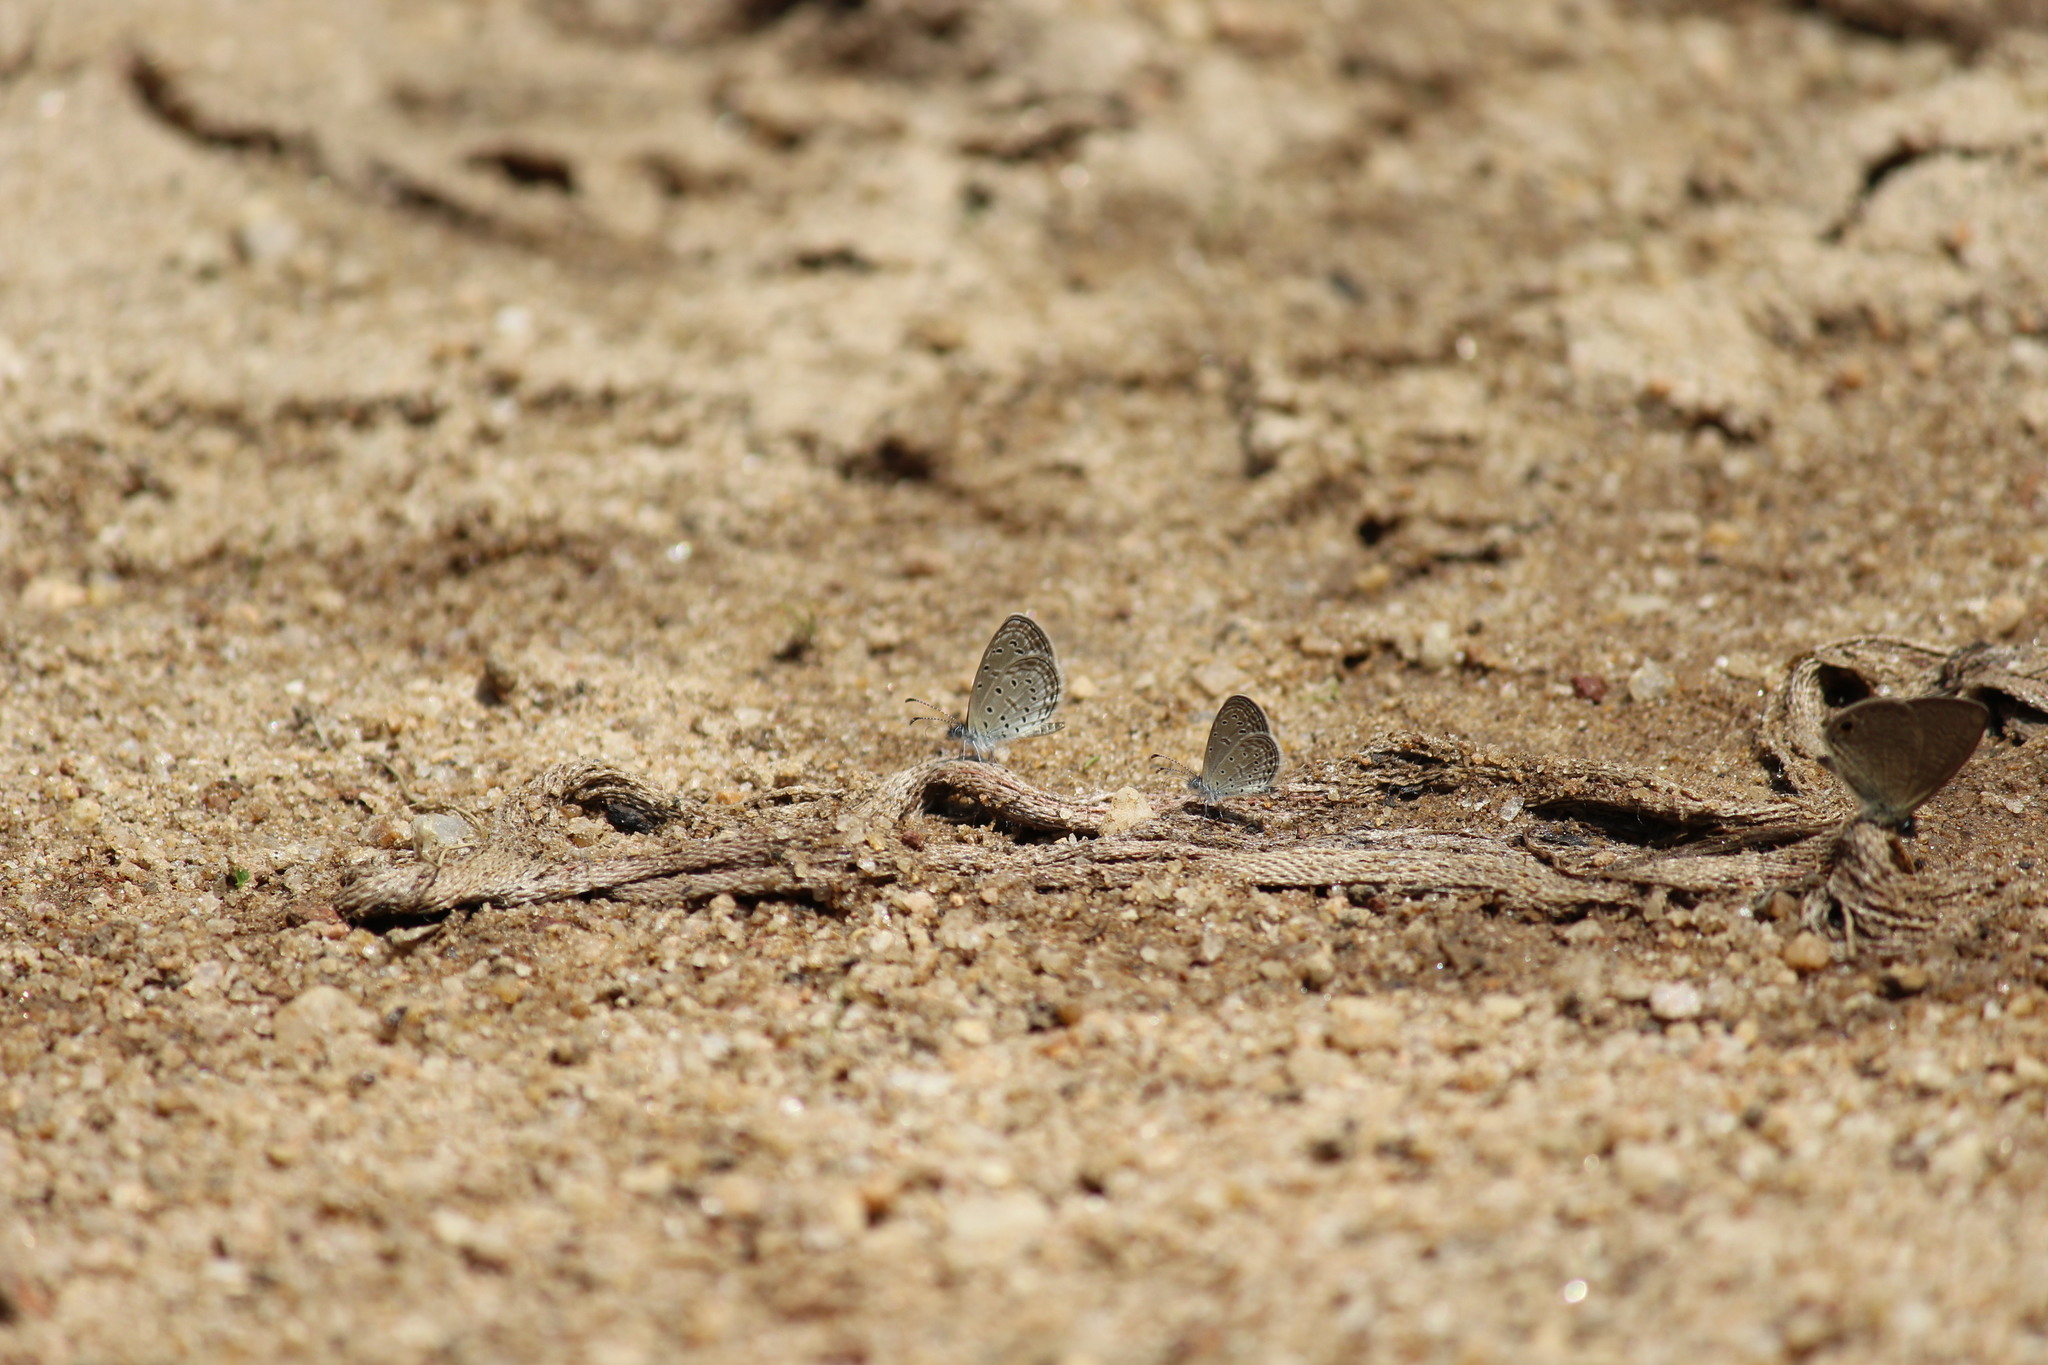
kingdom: Animalia
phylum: Arthropoda
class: Insecta
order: Lepidoptera
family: Lycaenidae
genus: Zizula
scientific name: Zizula hylax
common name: Gaika blue
